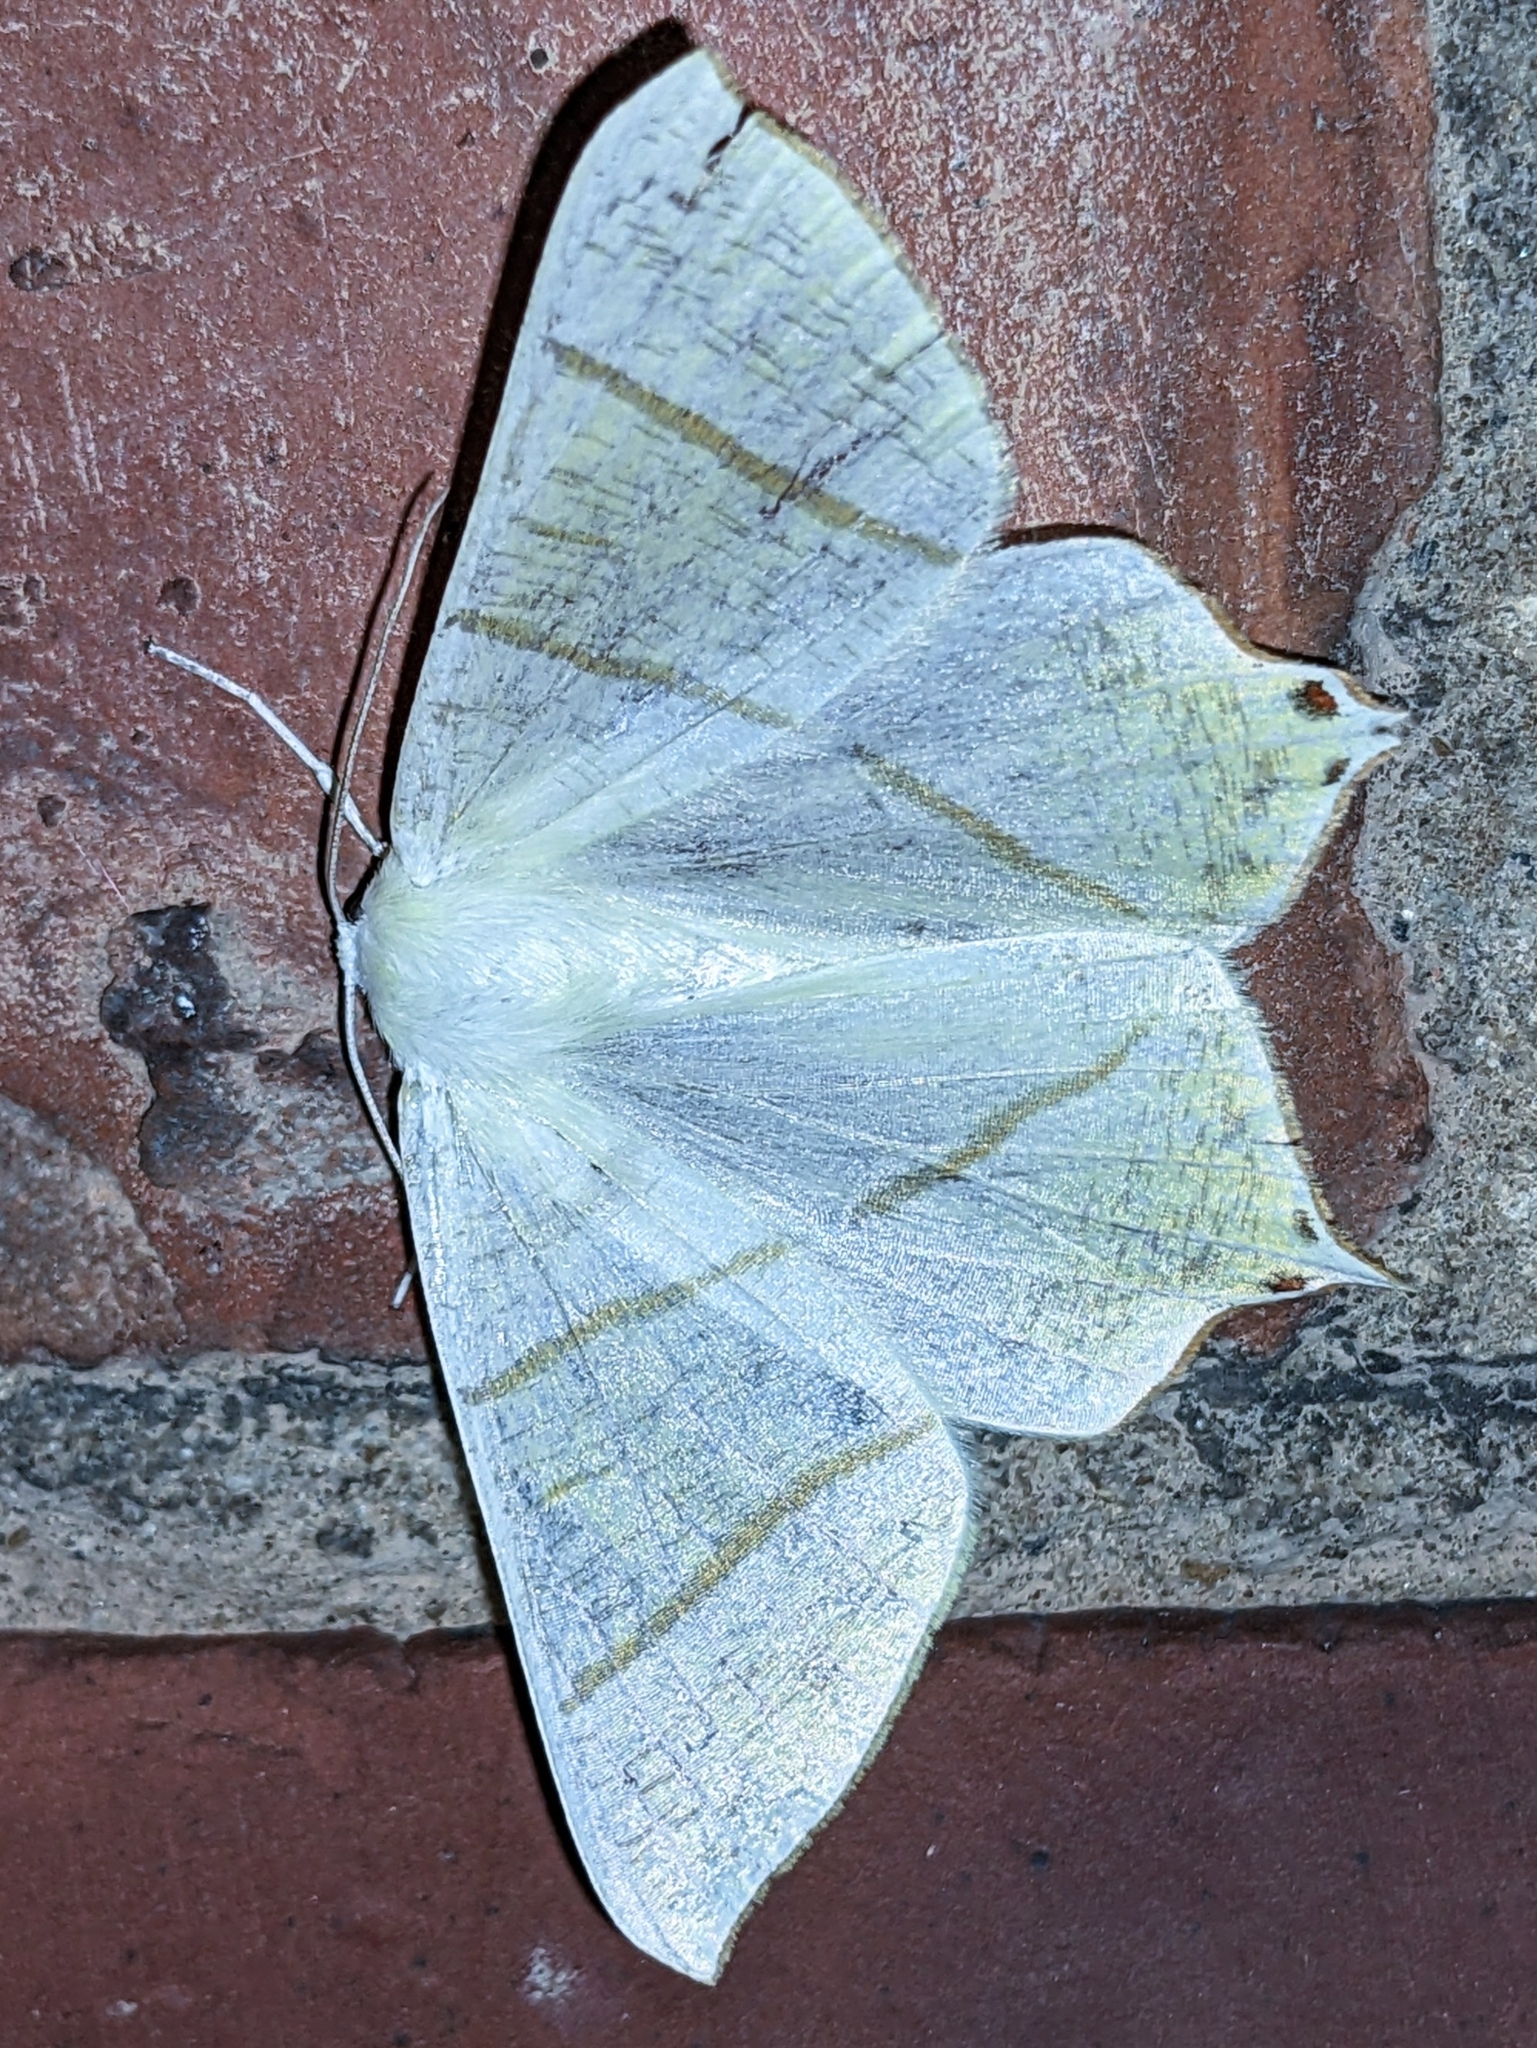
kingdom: Animalia
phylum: Arthropoda
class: Insecta
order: Lepidoptera
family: Geometridae
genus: Ourapteryx
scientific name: Ourapteryx sambucaria
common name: Swallow-tailed moth
